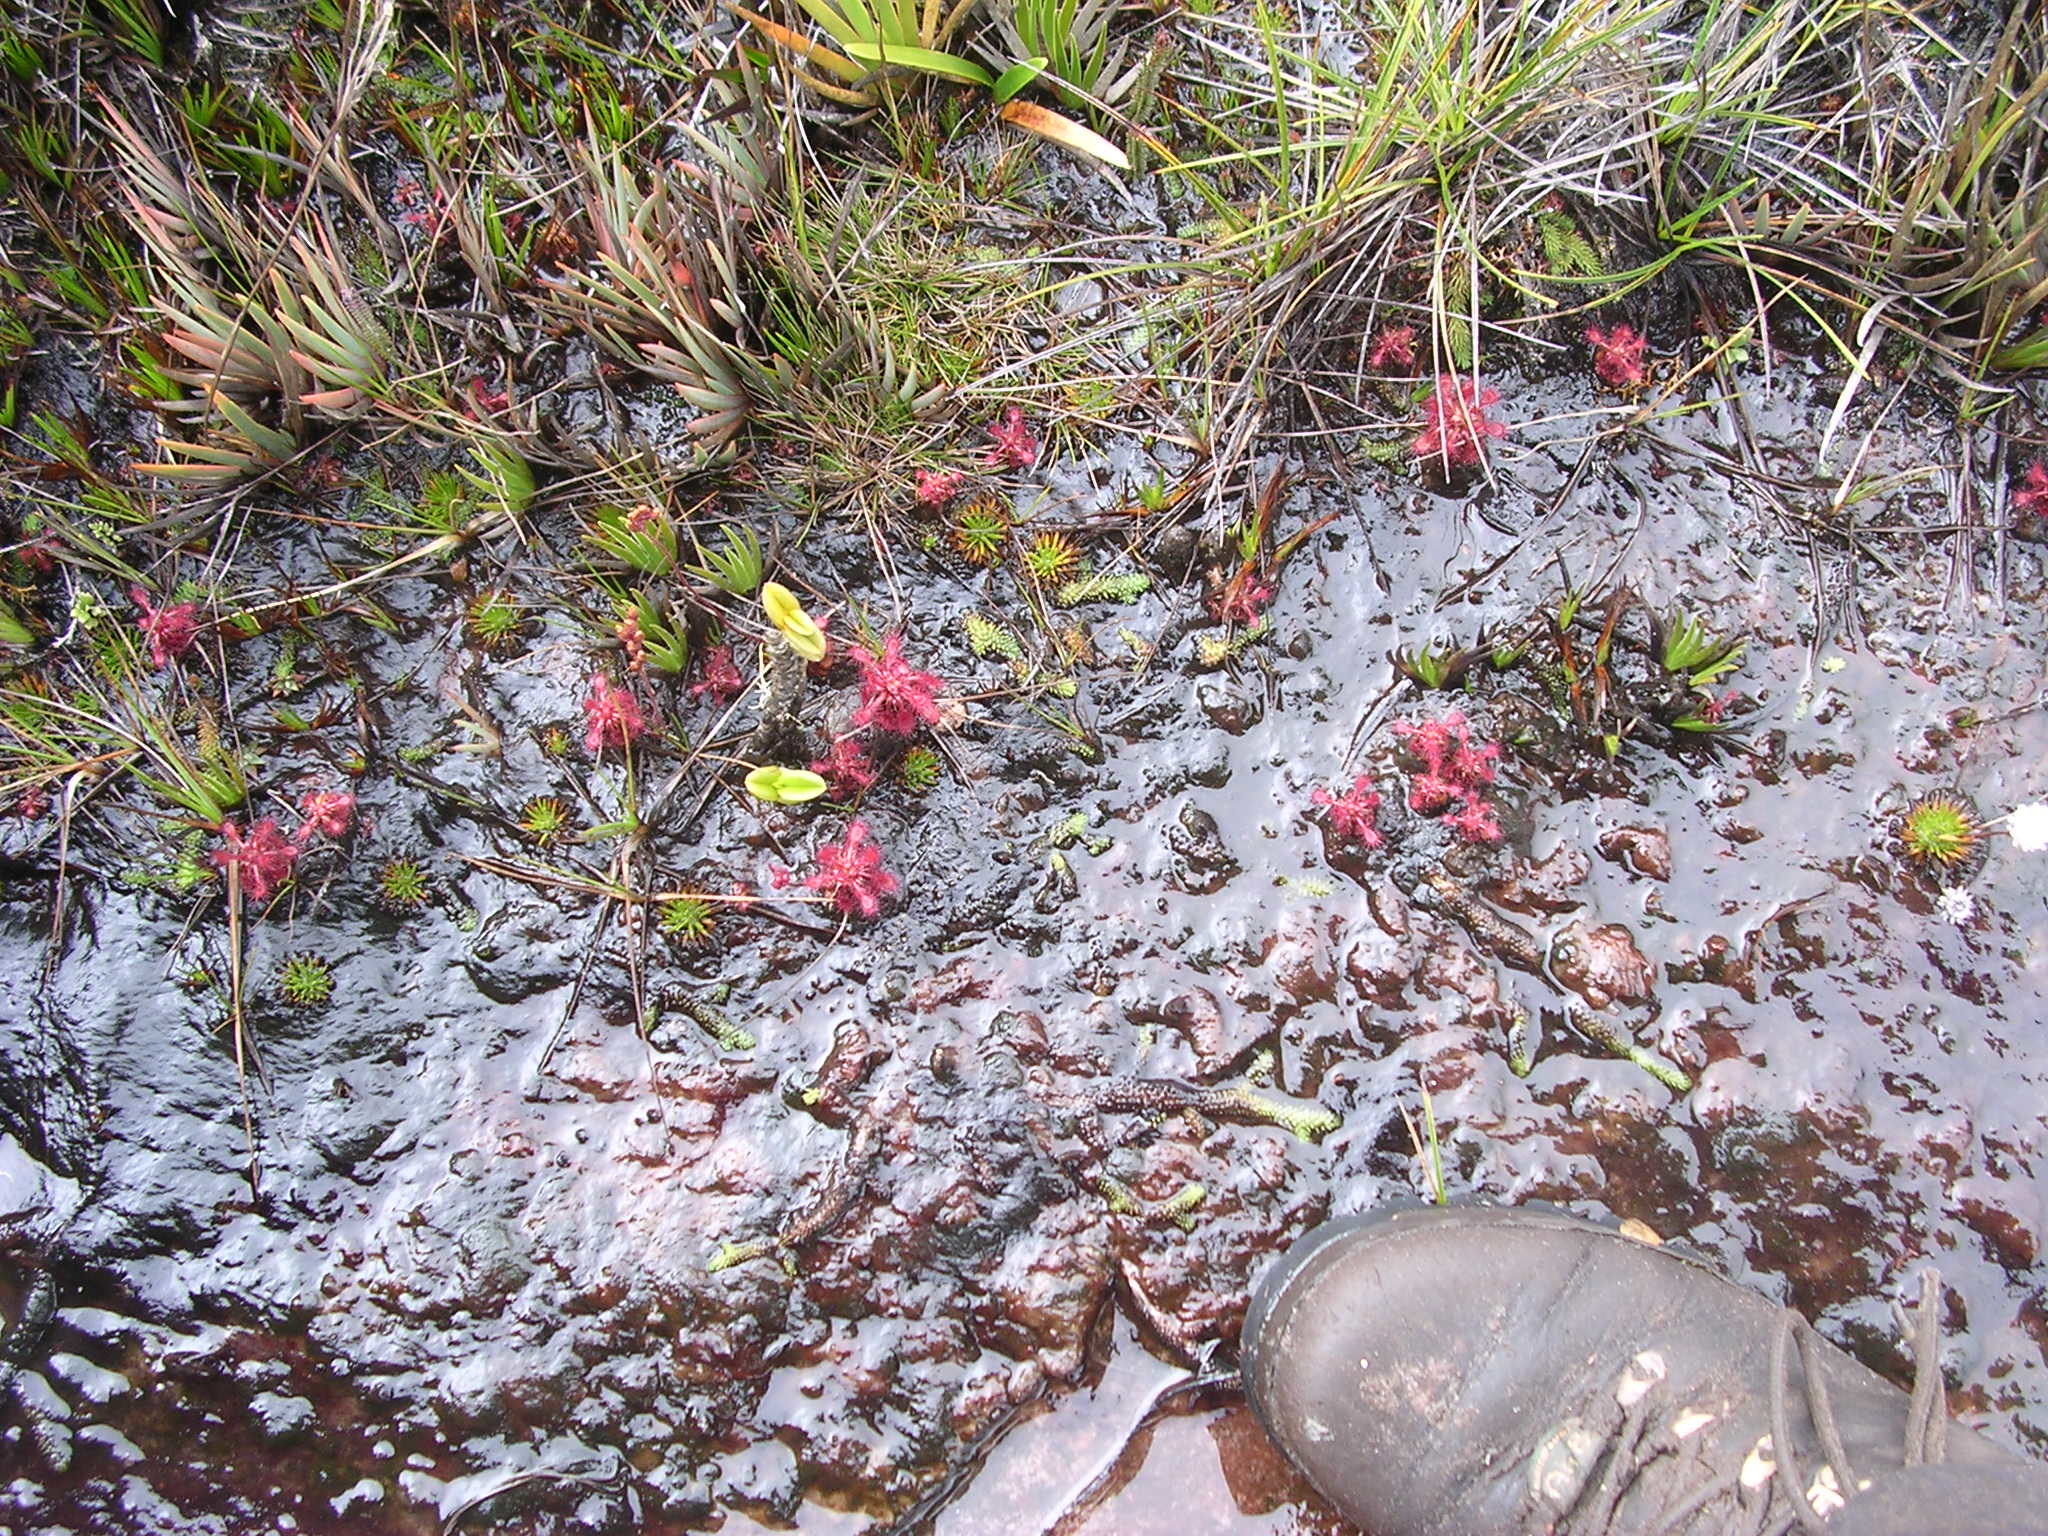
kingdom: Plantae
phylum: Tracheophyta
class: Magnoliopsida
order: Caryophyllales
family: Droseraceae
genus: Drosera
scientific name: Drosera roraimae
